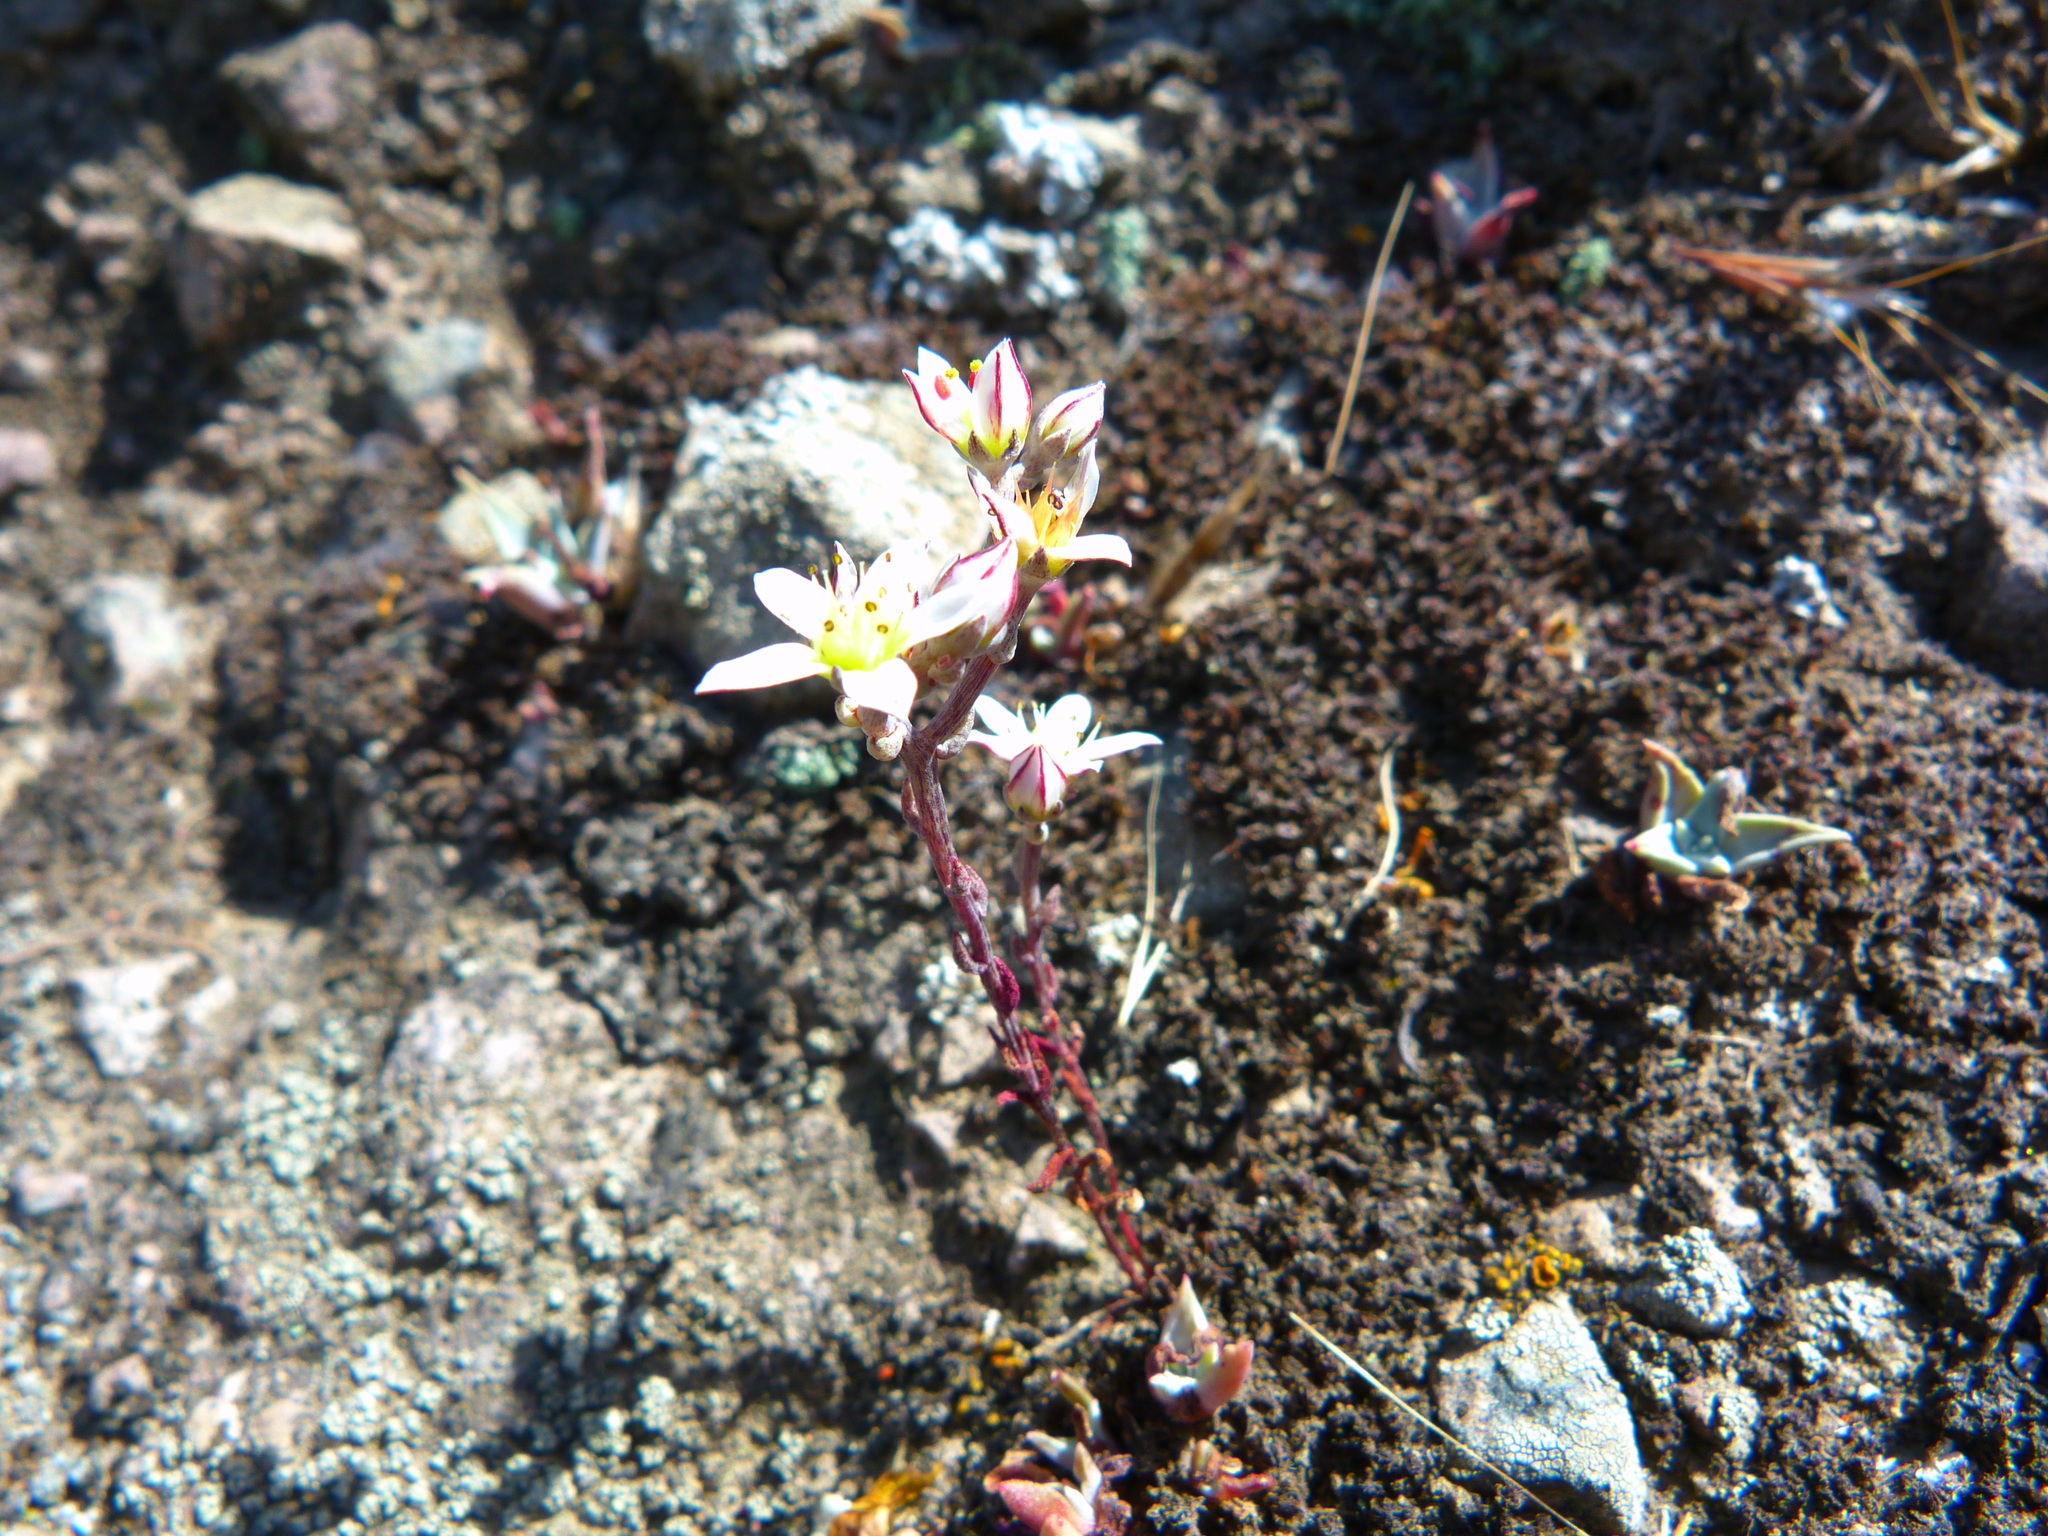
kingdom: Plantae
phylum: Tracheophyta
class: Magnoliopsida
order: Saxifragales
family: Crassulaceae
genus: Dudleya
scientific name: Dudleya blochmaniae
